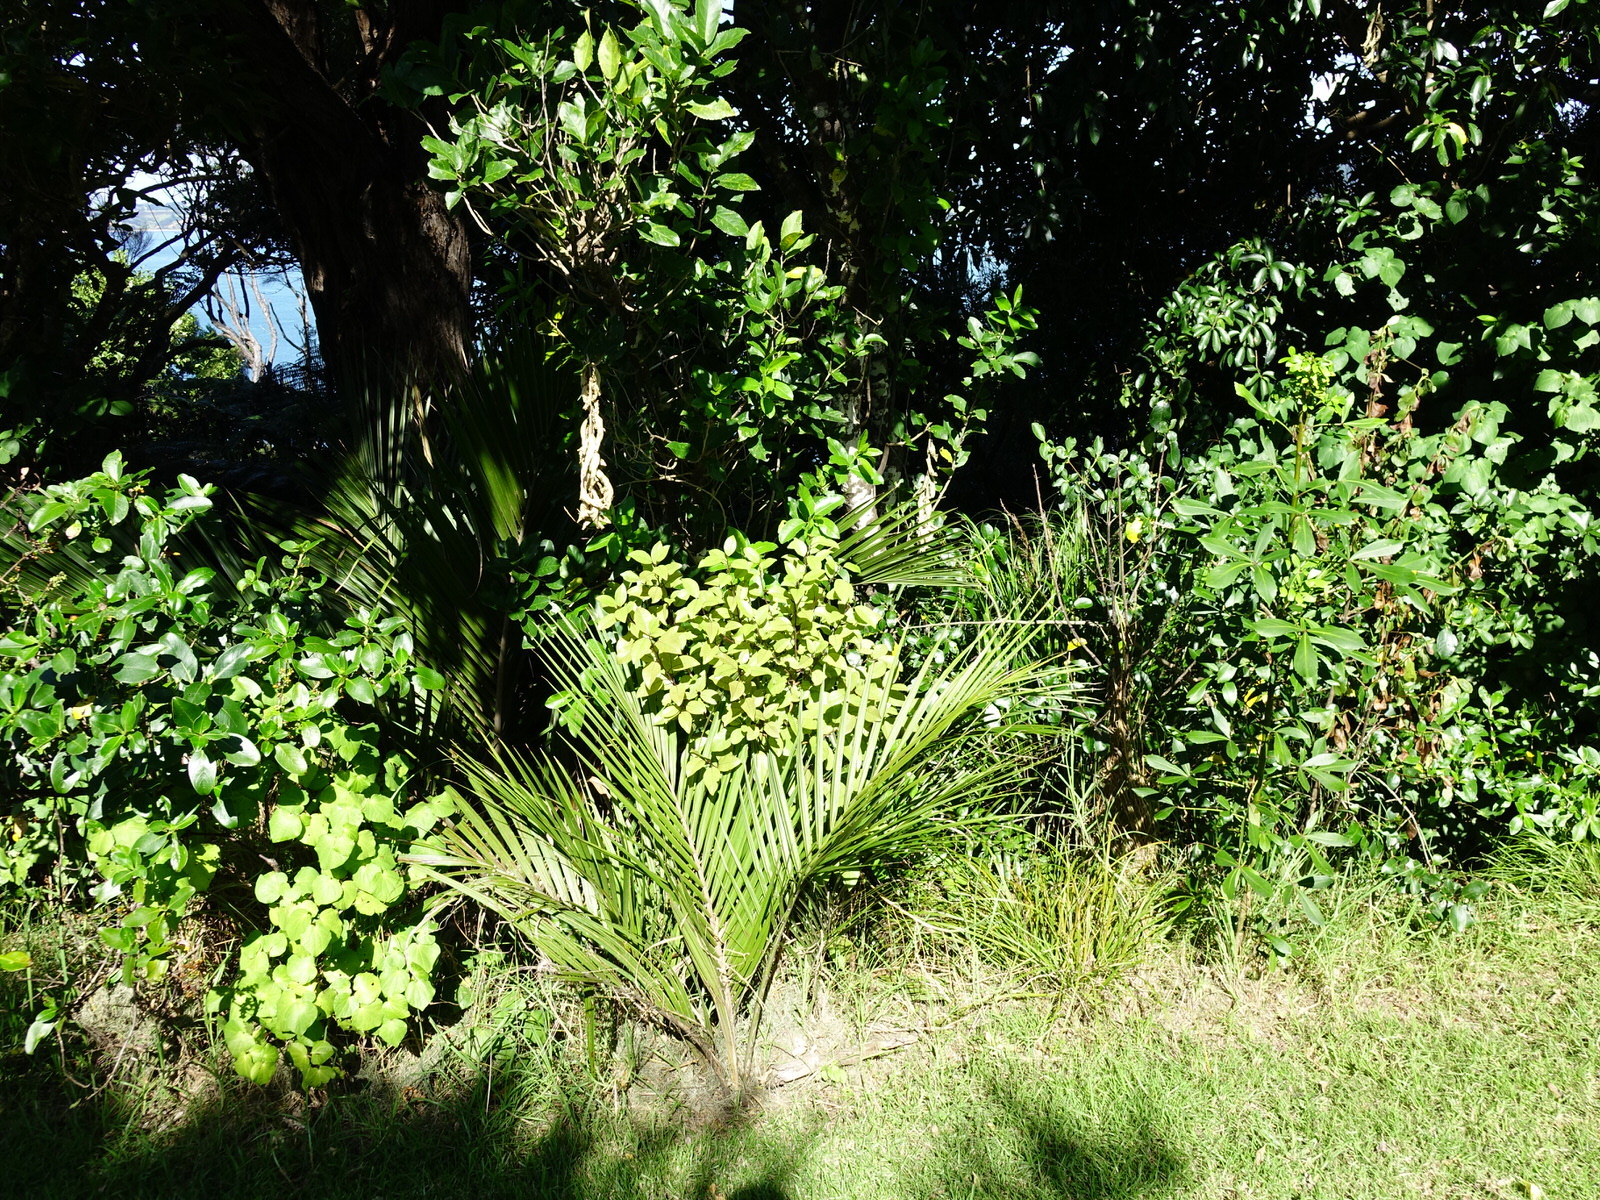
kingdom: Plantae
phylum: Tracheophyta
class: Magnoliopsida
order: Laurales
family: Lauraceae
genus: Litsea
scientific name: Litsea calicaris
